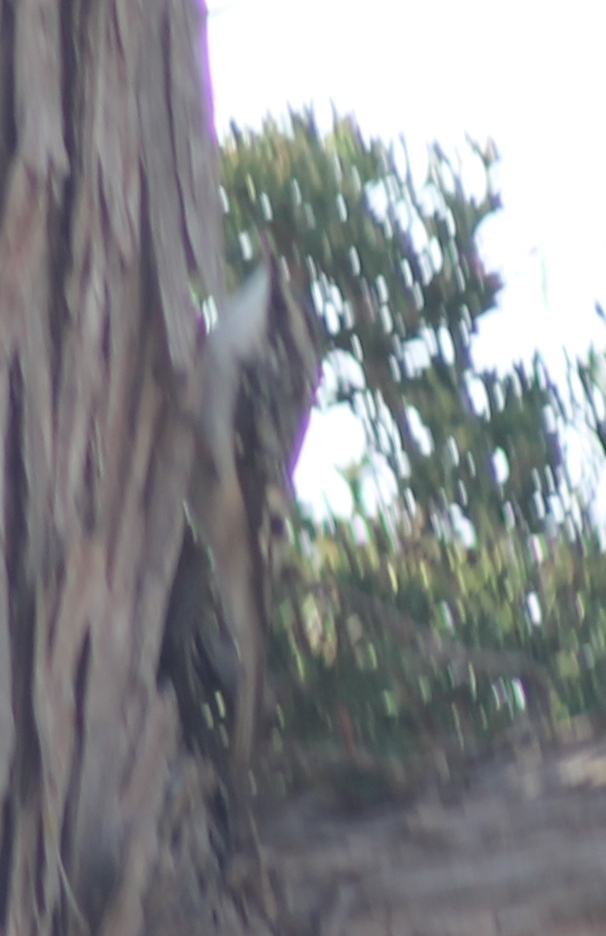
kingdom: Animalia
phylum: Chordata
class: Aves
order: Passeriformes
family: Certhiidae
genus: Certhia
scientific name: Certhia americana
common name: Brown creeper
